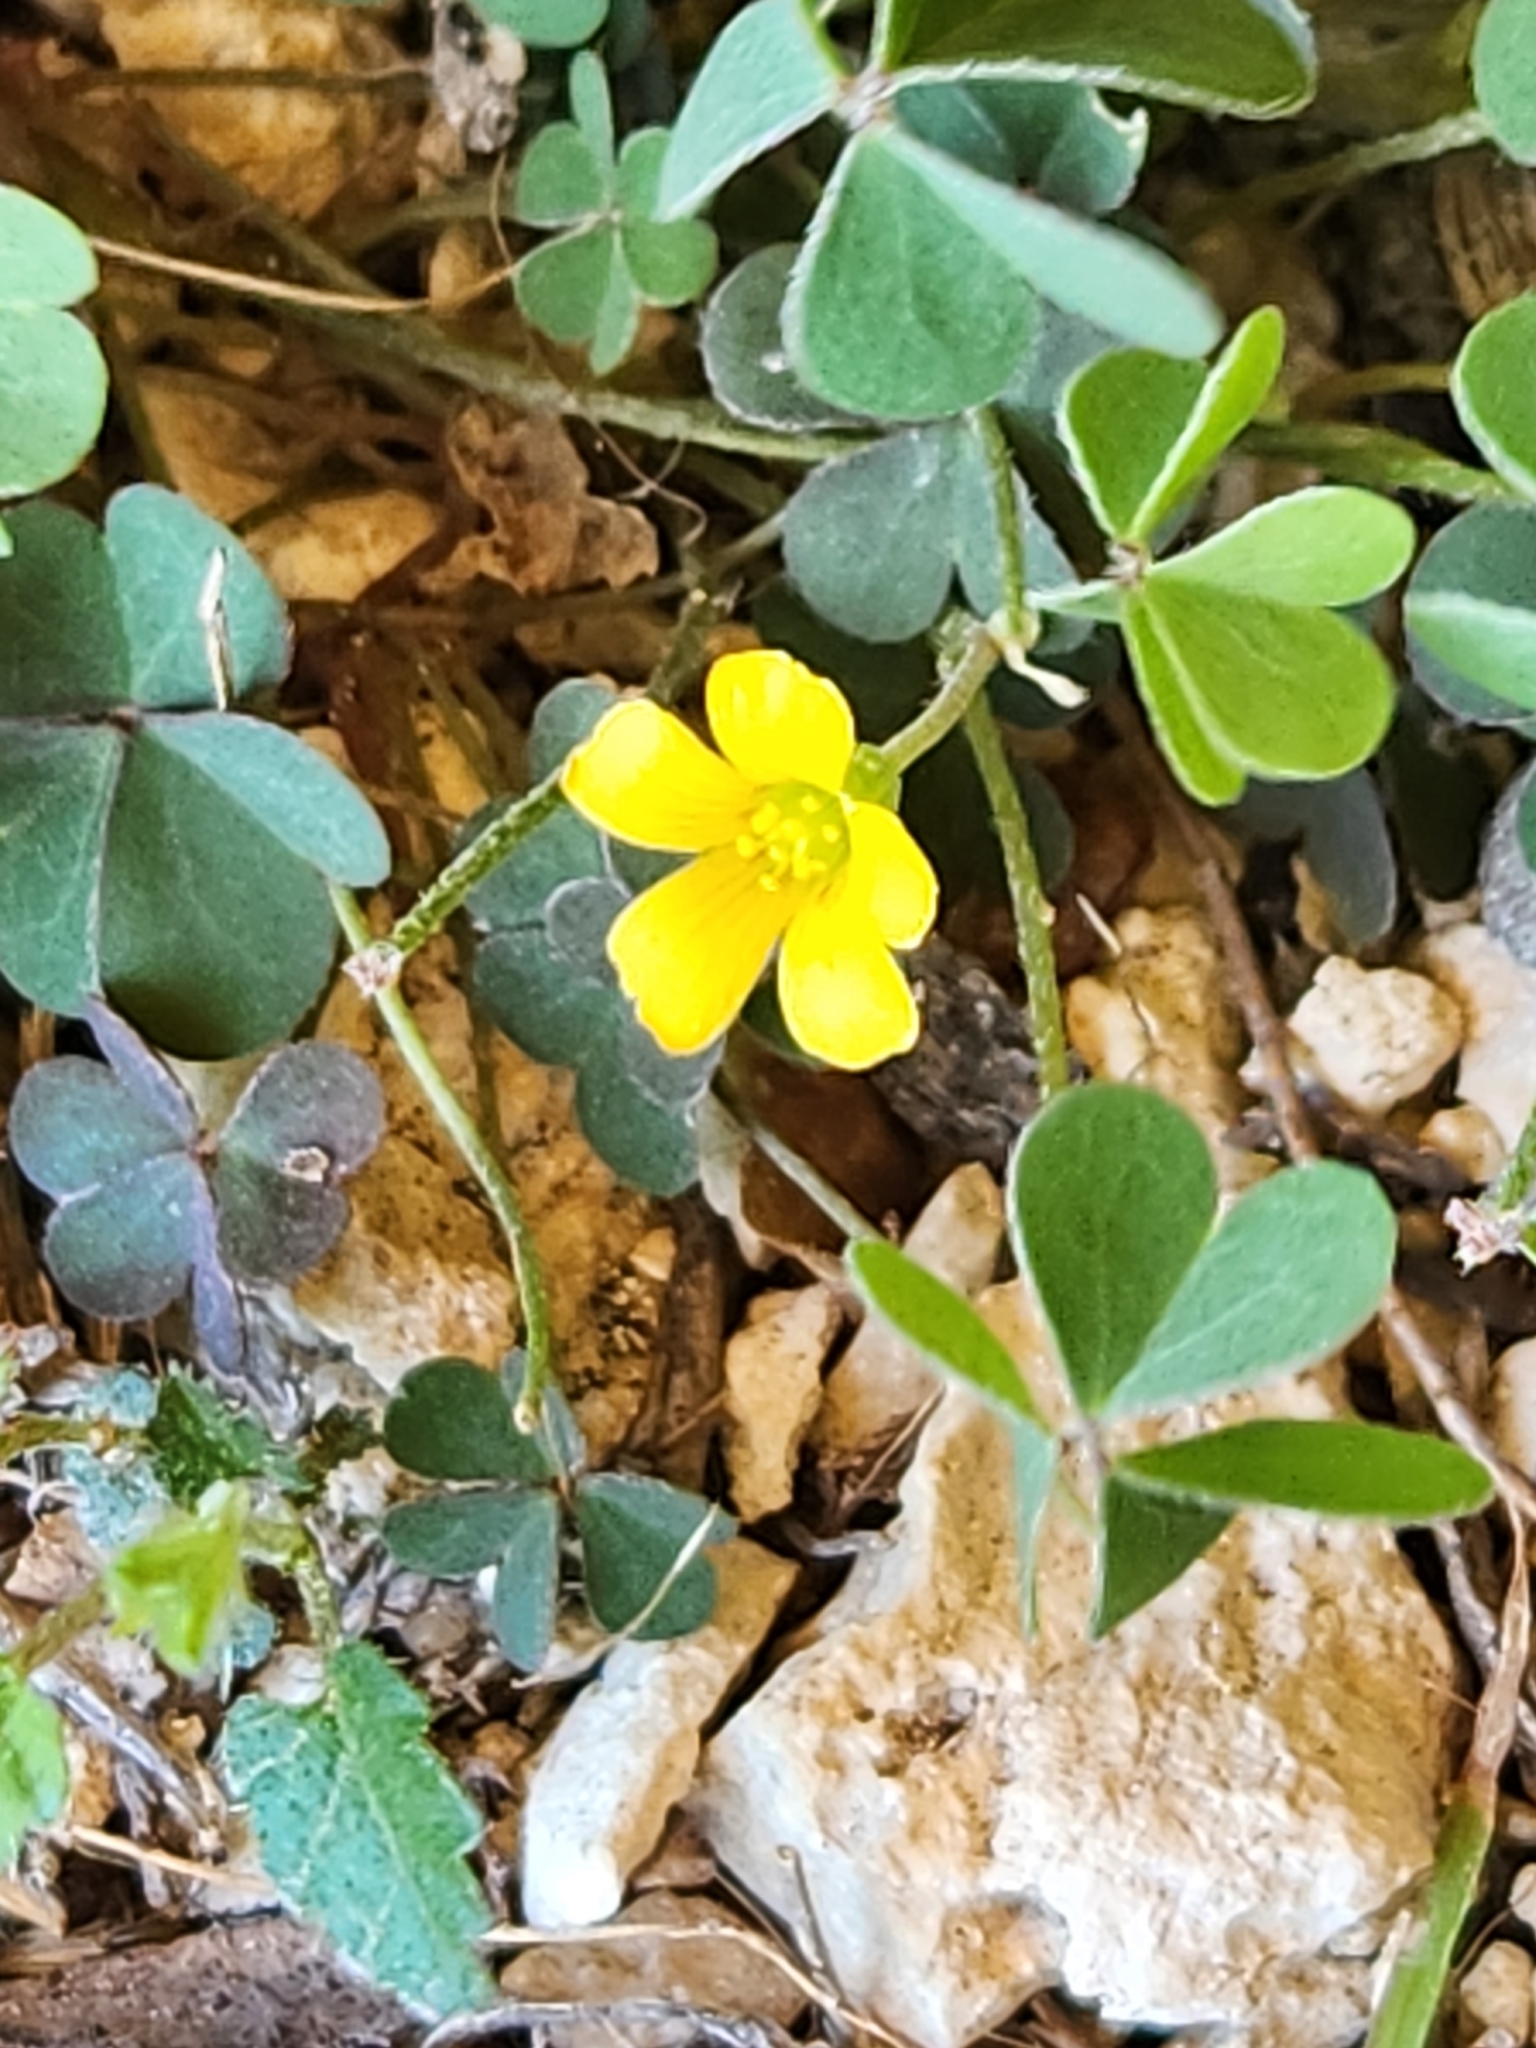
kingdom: Plantae
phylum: Tracheophyta
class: Magnoliopsida
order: Oxalidales
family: Oxalidaceae
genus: Oxalis
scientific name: Oxalis corniculata
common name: Procumbent yellow-sorrel
